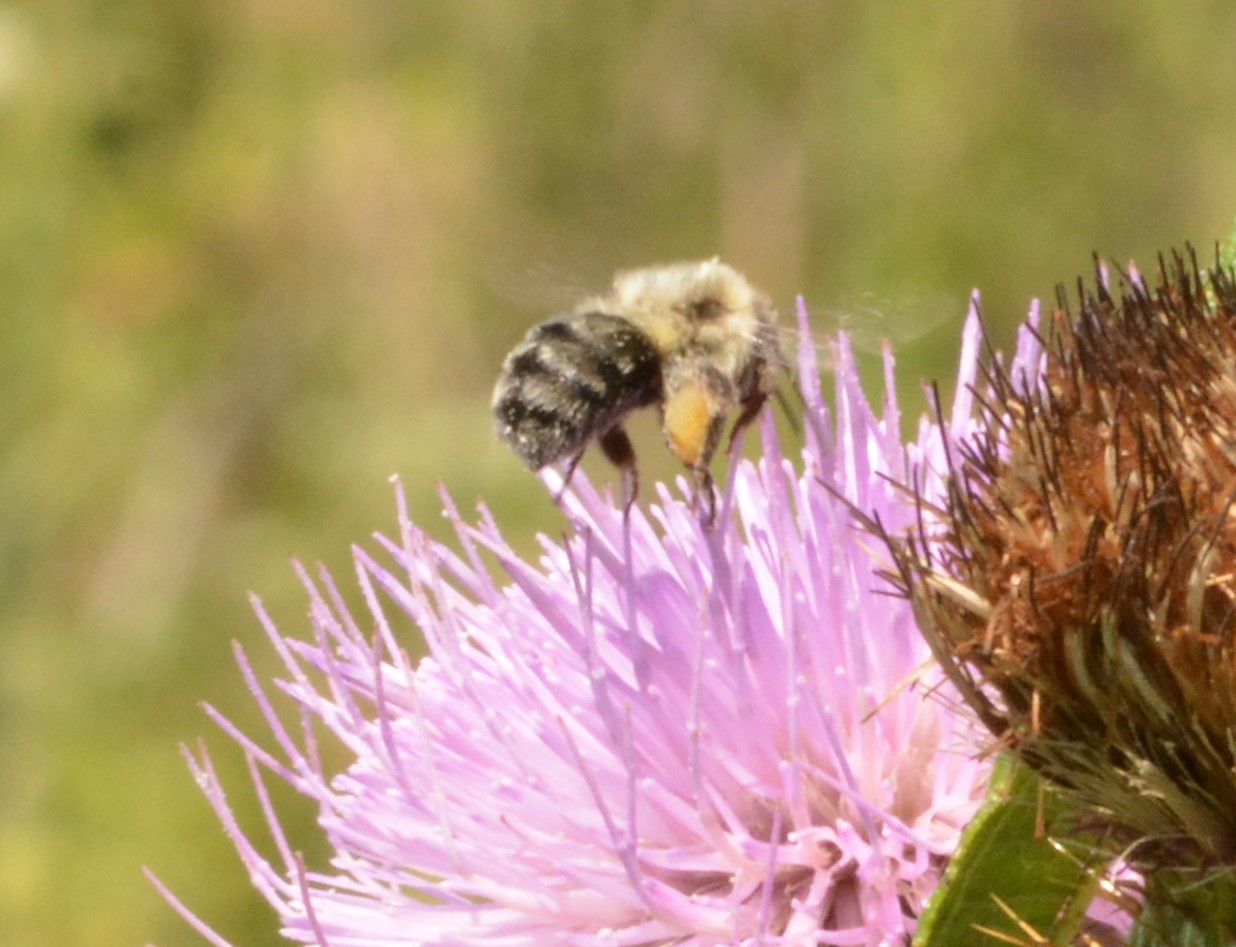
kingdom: Animalia
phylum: Arthropoda
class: Insecta
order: Hymenoptera
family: Apidae
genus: Bombus
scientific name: Bombus impatiens
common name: Common eastern bumble bee
